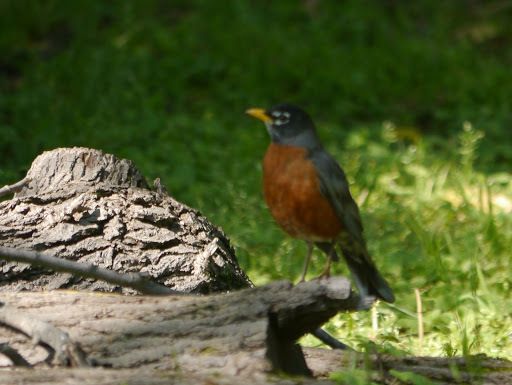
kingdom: Animalia
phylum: Chordata
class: Aves
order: Passeriformes
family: Turdidae
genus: Turdus
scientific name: Turdus migratorius
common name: American robin
